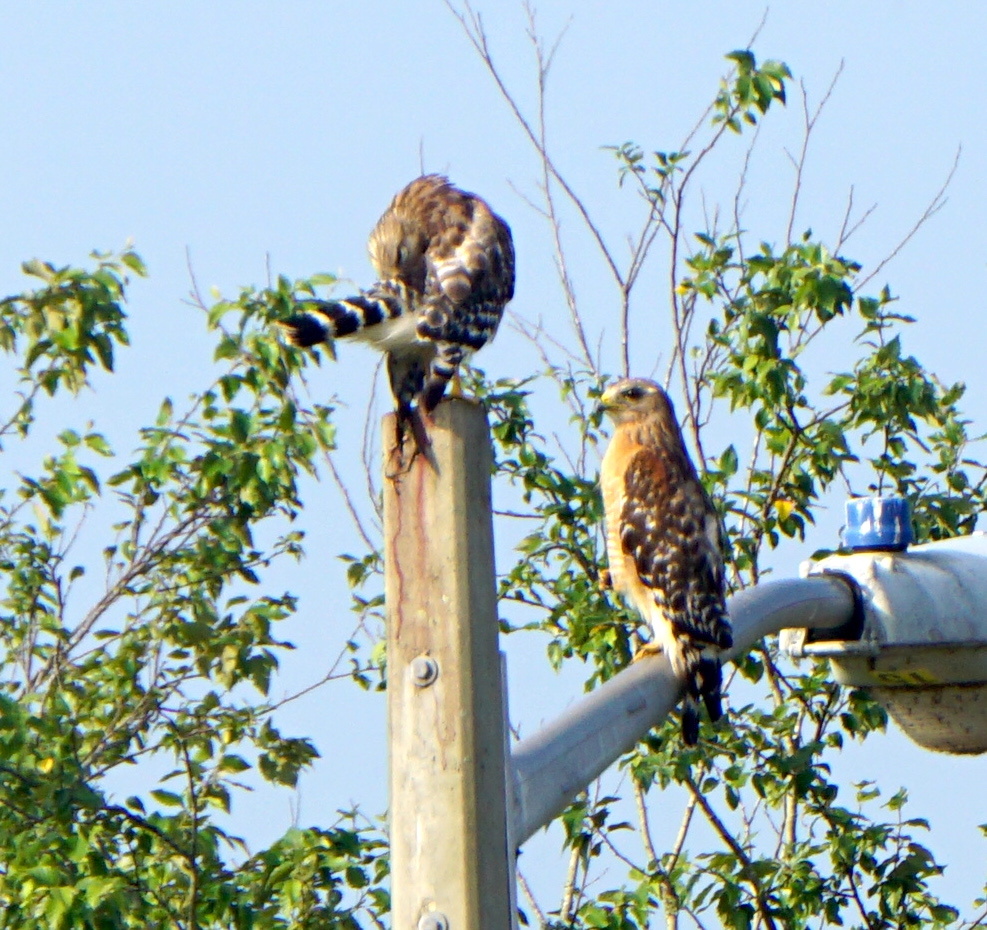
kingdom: Animalia
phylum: Chordata
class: Aves
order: Accipitriformes
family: Accipitridae
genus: Buteo
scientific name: Buteo lineatus
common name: Red-shouldered hawk
